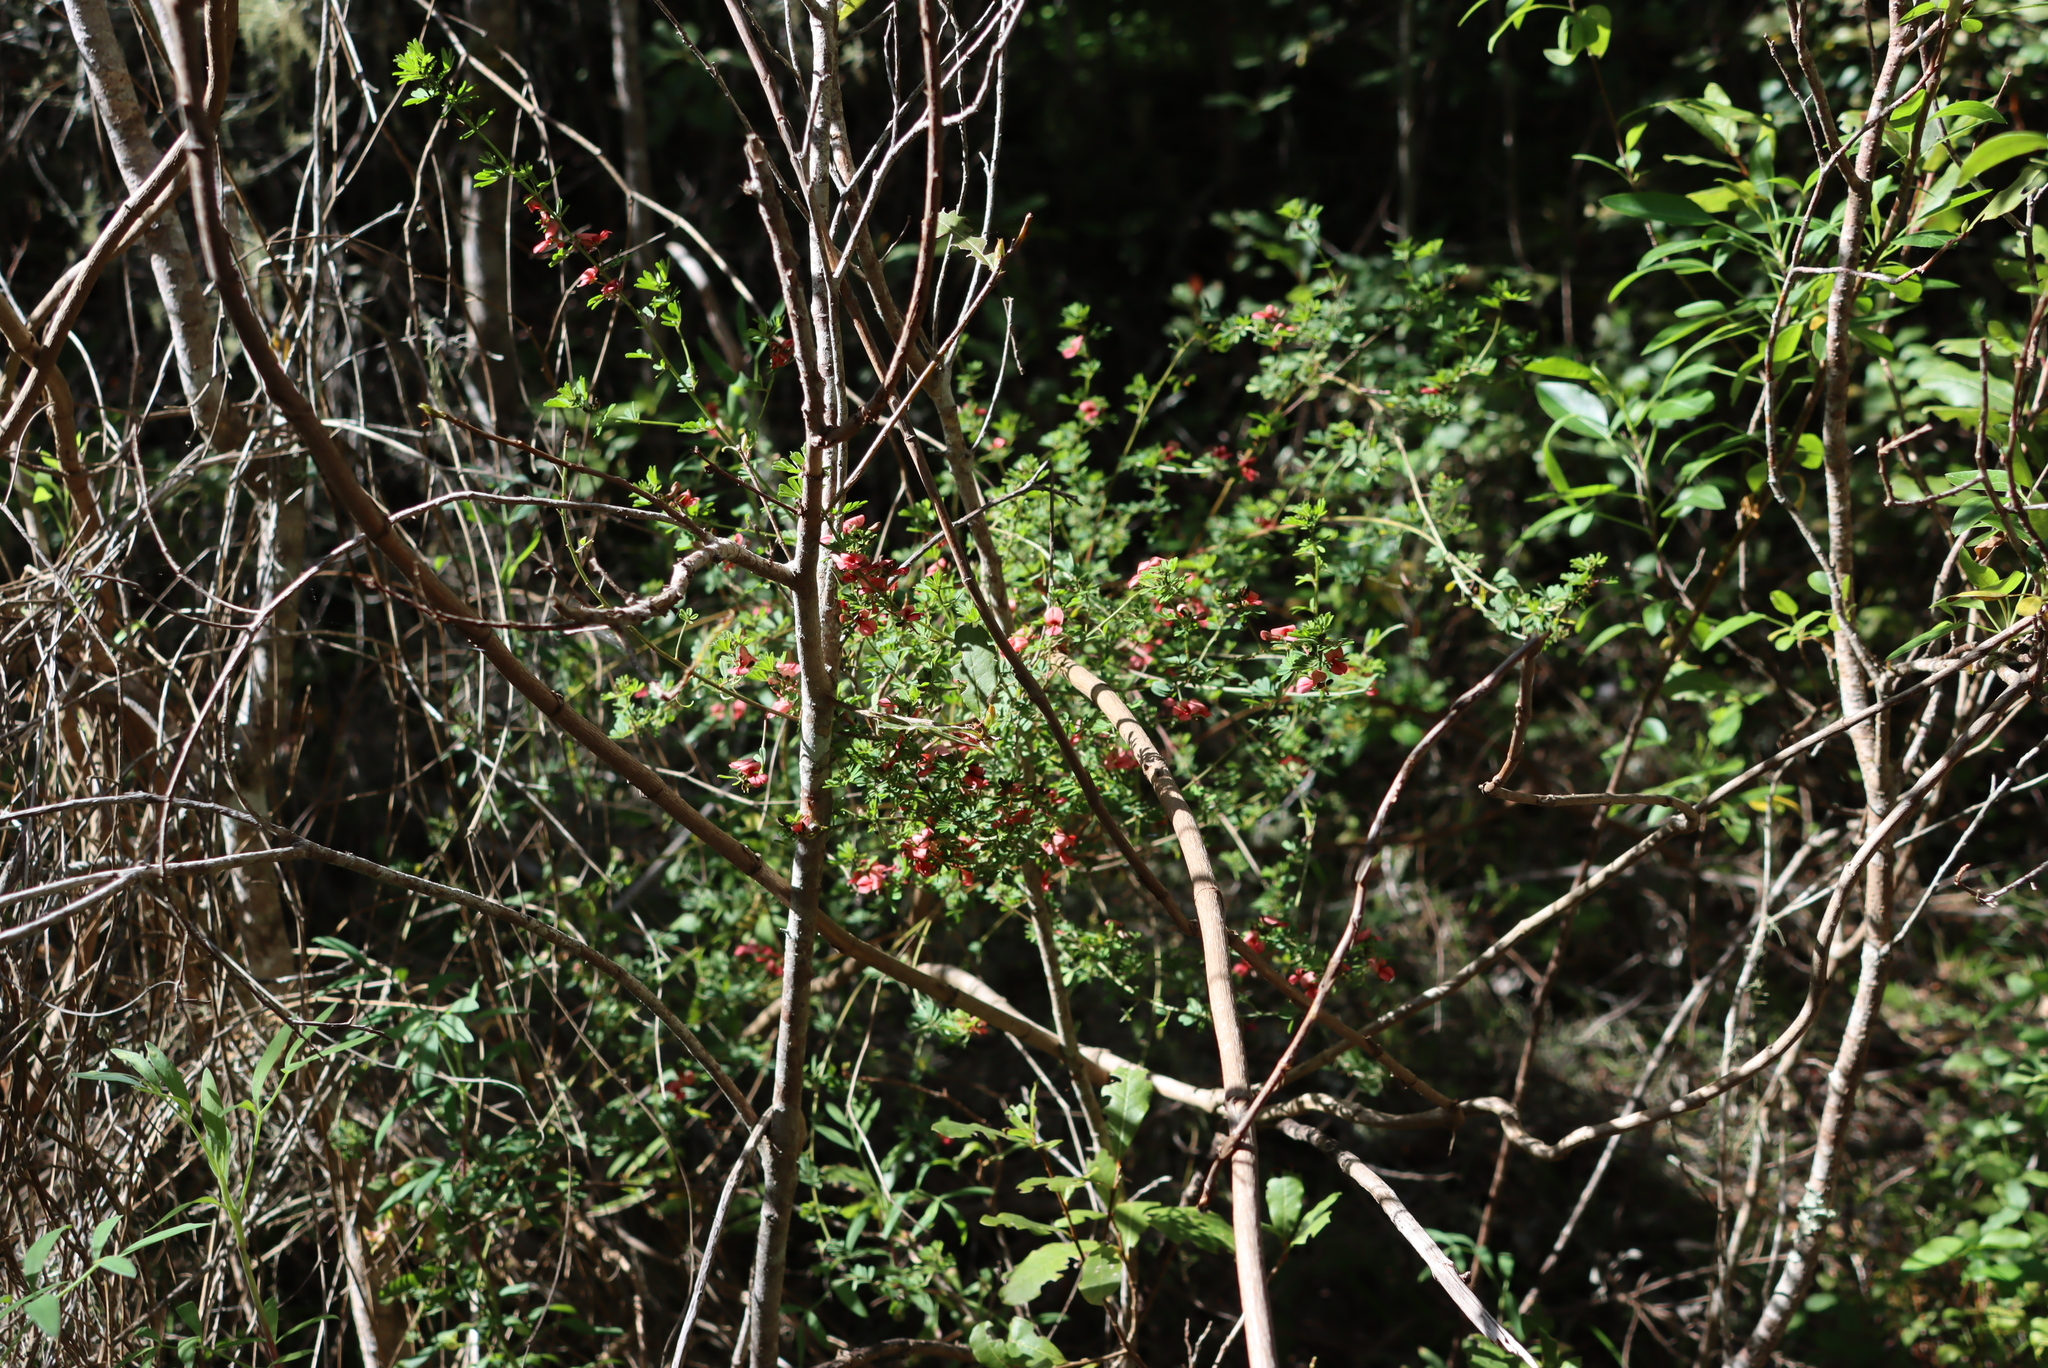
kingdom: Plantae
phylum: Tracheophyta
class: Magnoliopsida
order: Fabales
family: Fabaceae
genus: Indigofera
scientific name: Indigofera stricta
